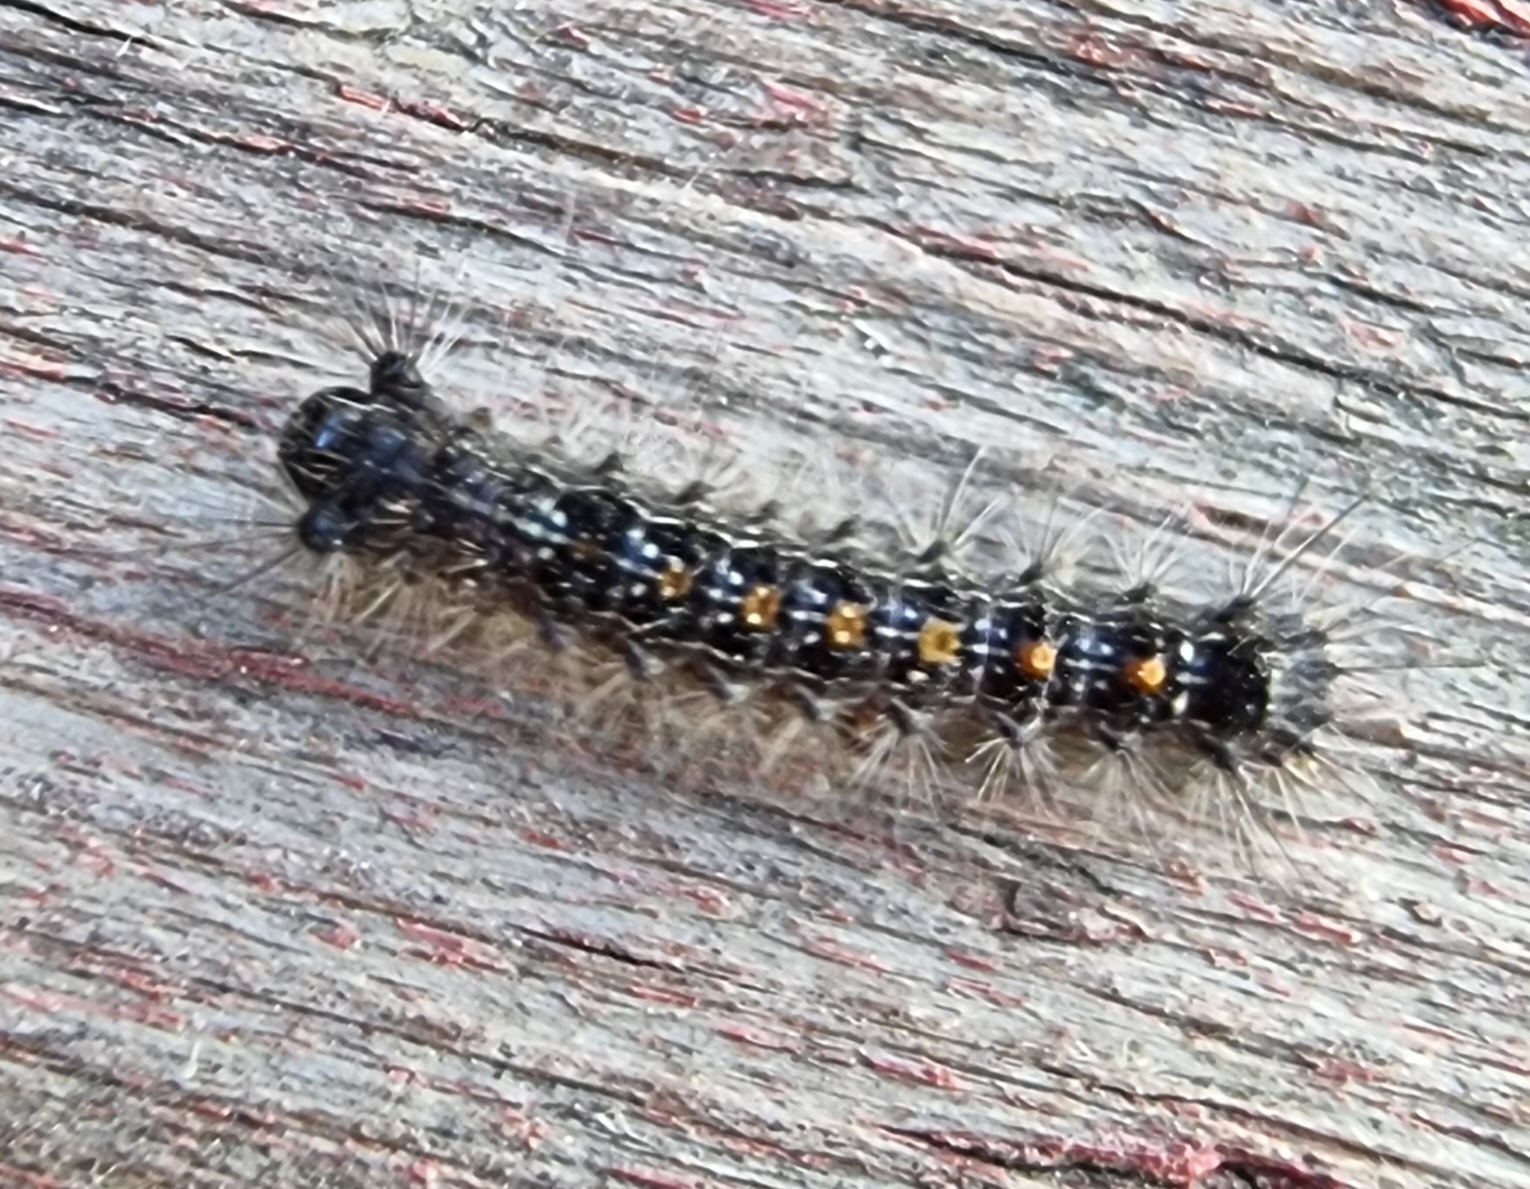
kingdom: Animalia
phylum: Arthropoda
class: Insecta
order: Lepidoptera
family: Erebidae
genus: Lymantria
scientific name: Lymantria dispar
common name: Gypsy moth
